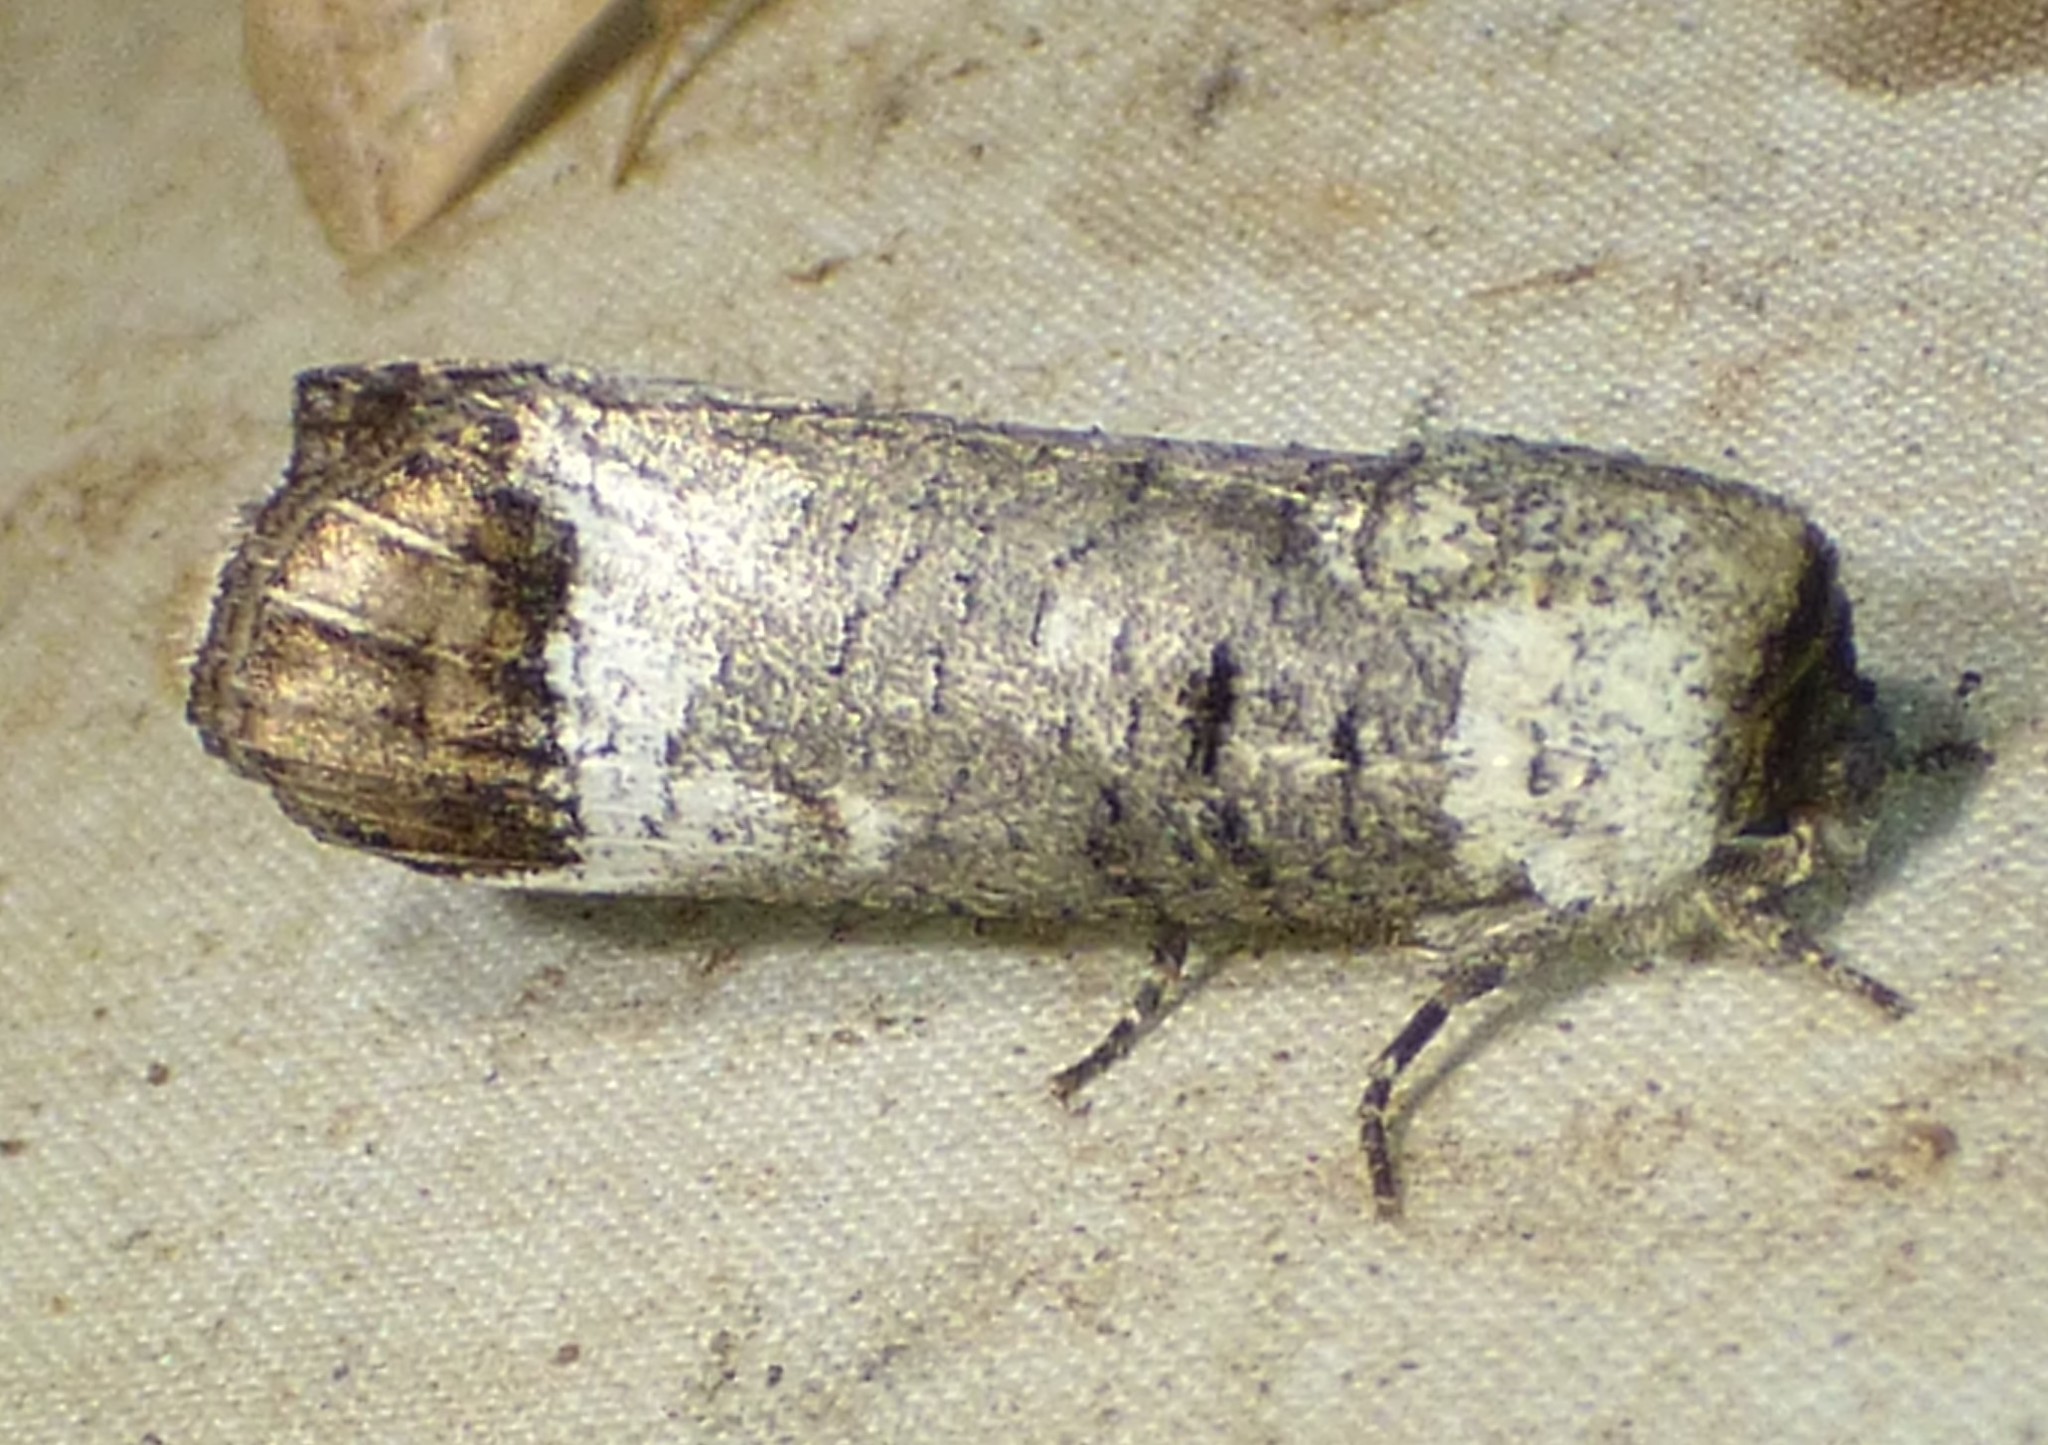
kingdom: Animalia
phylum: Arthropoda
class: Insecta
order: Lepidoptera
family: Cossidae
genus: Cossula
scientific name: Cossula magnifica
